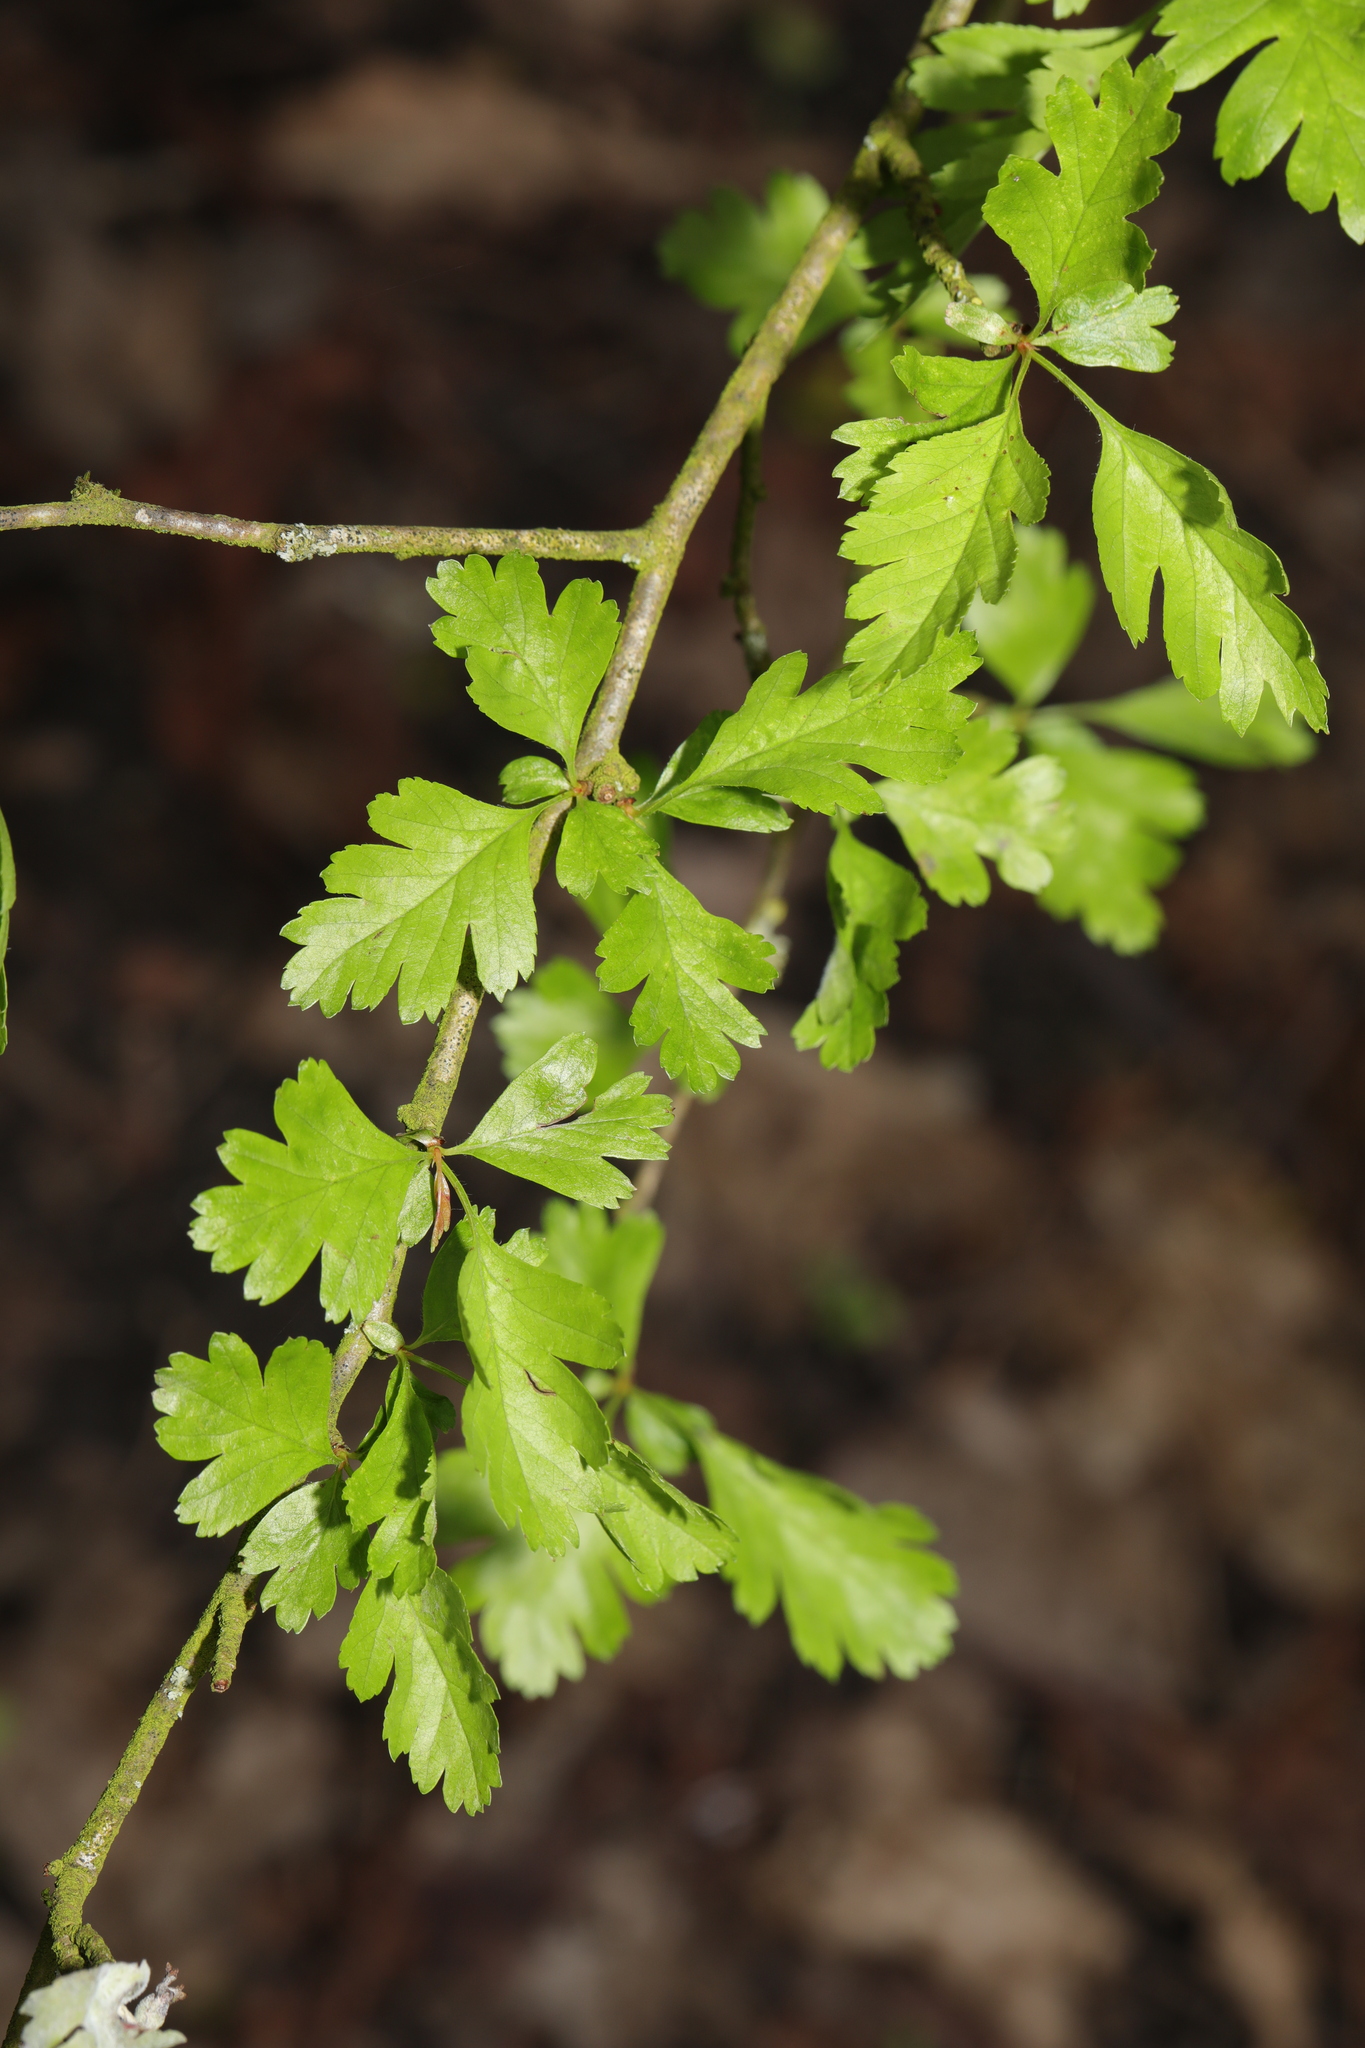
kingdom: Plantae
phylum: Tracheophyta
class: Magnoliopsida
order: Rosales
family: Rosaceae
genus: Crataegus
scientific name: Crataegus monogyna
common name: Hawthorn
